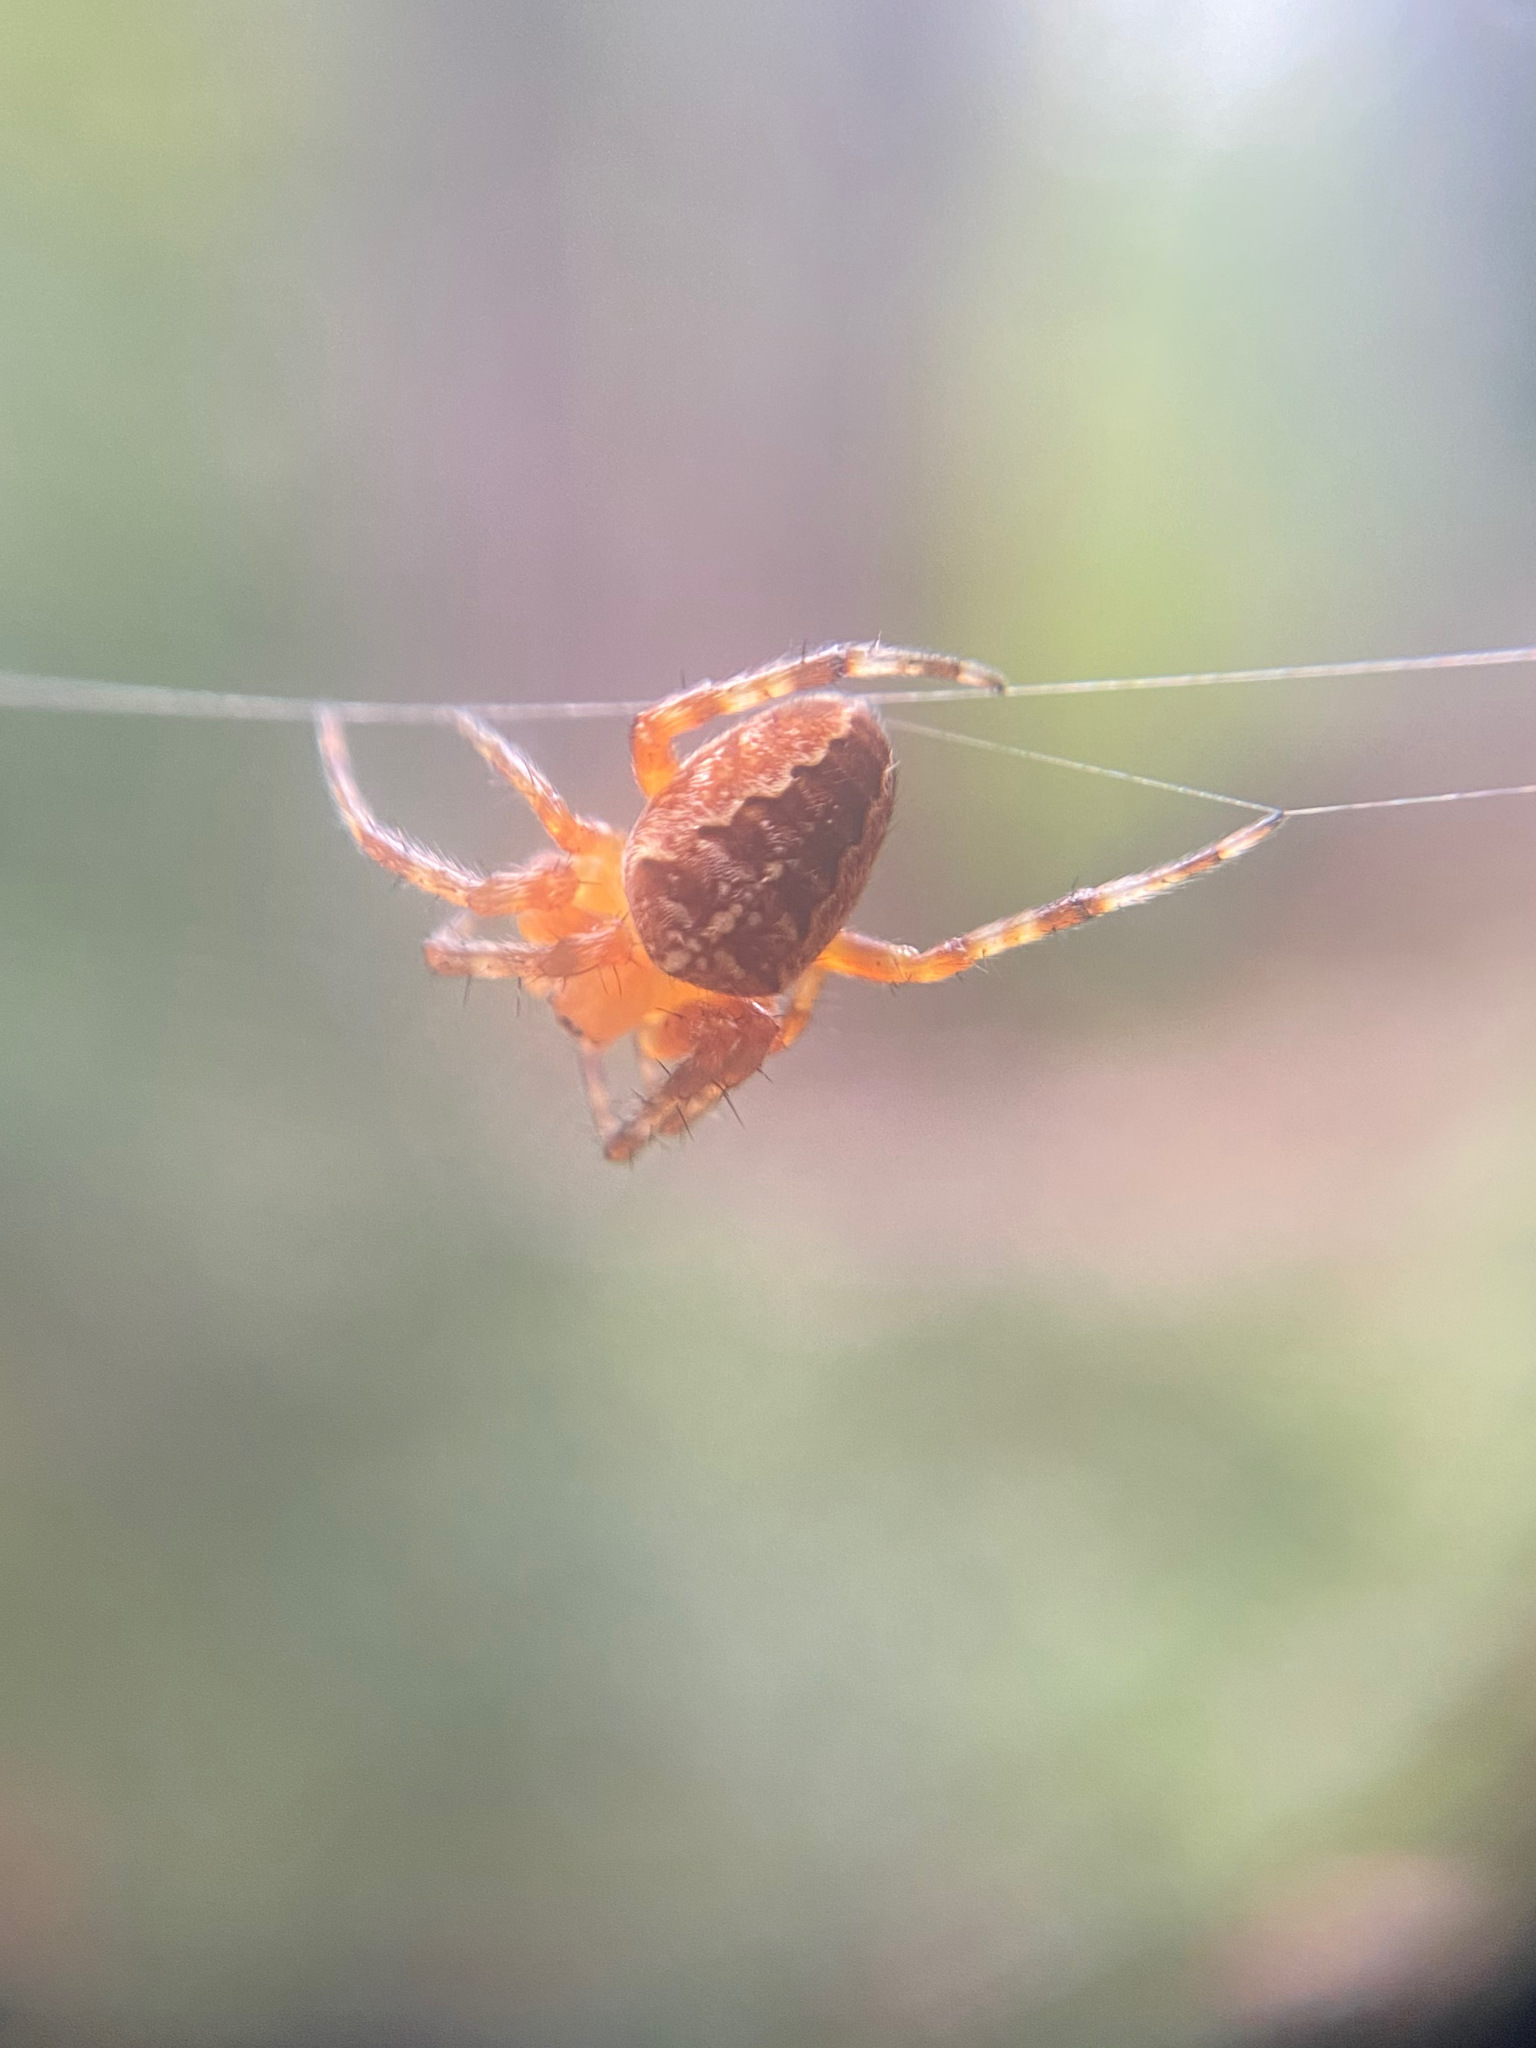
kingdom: Animalia
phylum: Arthropoda
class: Arachnida
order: Araneae
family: Araneidae
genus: Araneus
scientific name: Araneus diadematus
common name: Cross orbweaver
